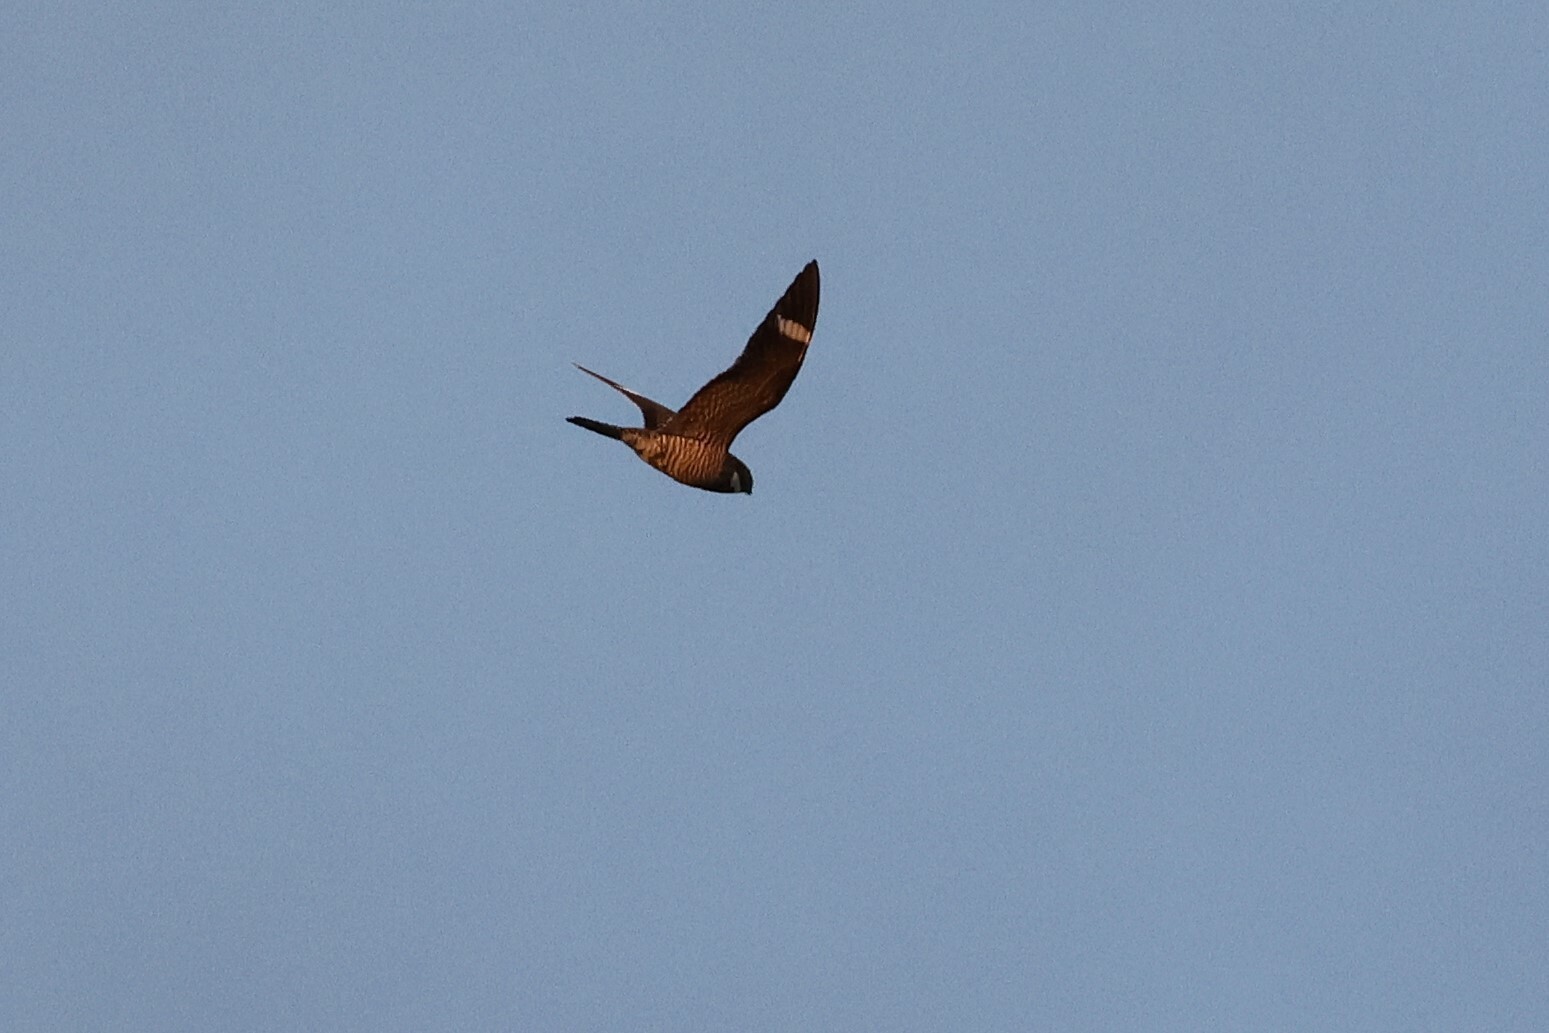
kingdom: Animalia
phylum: Chordata
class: Aves
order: Caprimulgiformes
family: Caprimulgidae
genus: Chordeiles
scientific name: Chordeiles minor
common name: Common nighthawk
